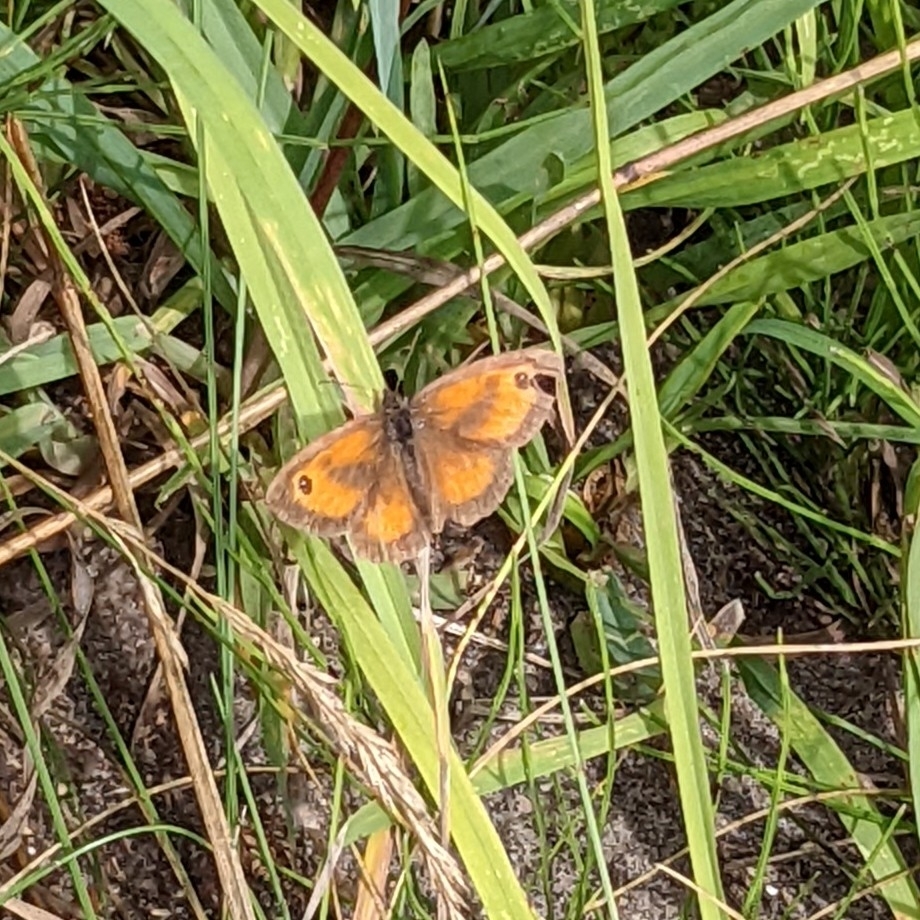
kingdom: Animalia
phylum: Arthropoda
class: Insecta
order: Lepidoptera
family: Nymphalidae
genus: Pyronia
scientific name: Pyronia tithonus
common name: Gatekeeper
